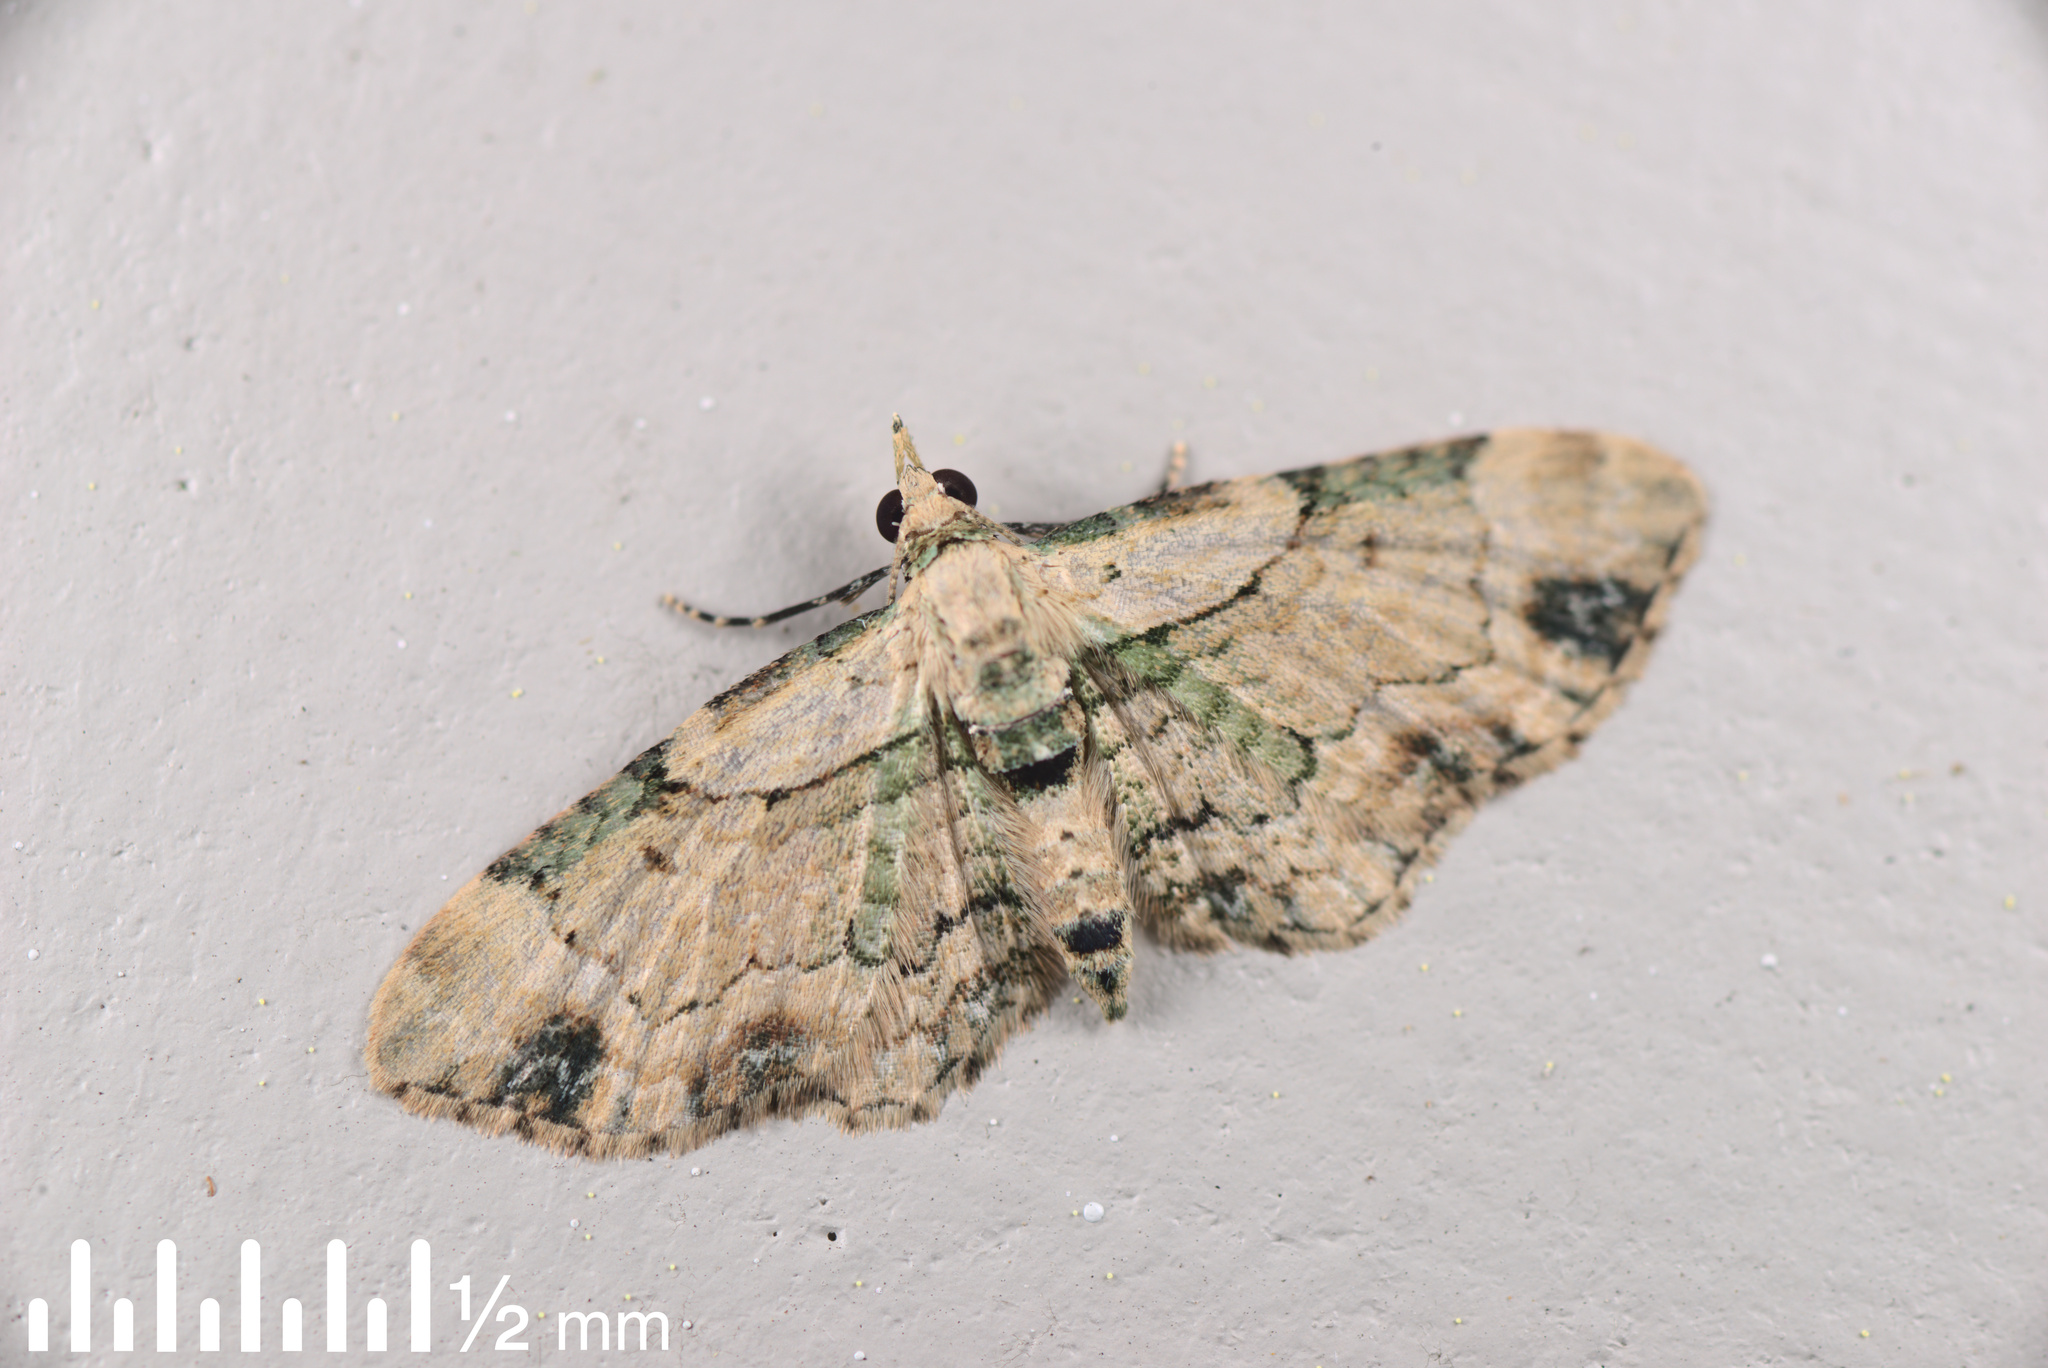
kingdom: Animalia
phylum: Arthropoda
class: Insecta
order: Lepidoptera
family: Geometridae
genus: Chloroclystis
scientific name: Chloroclystis
